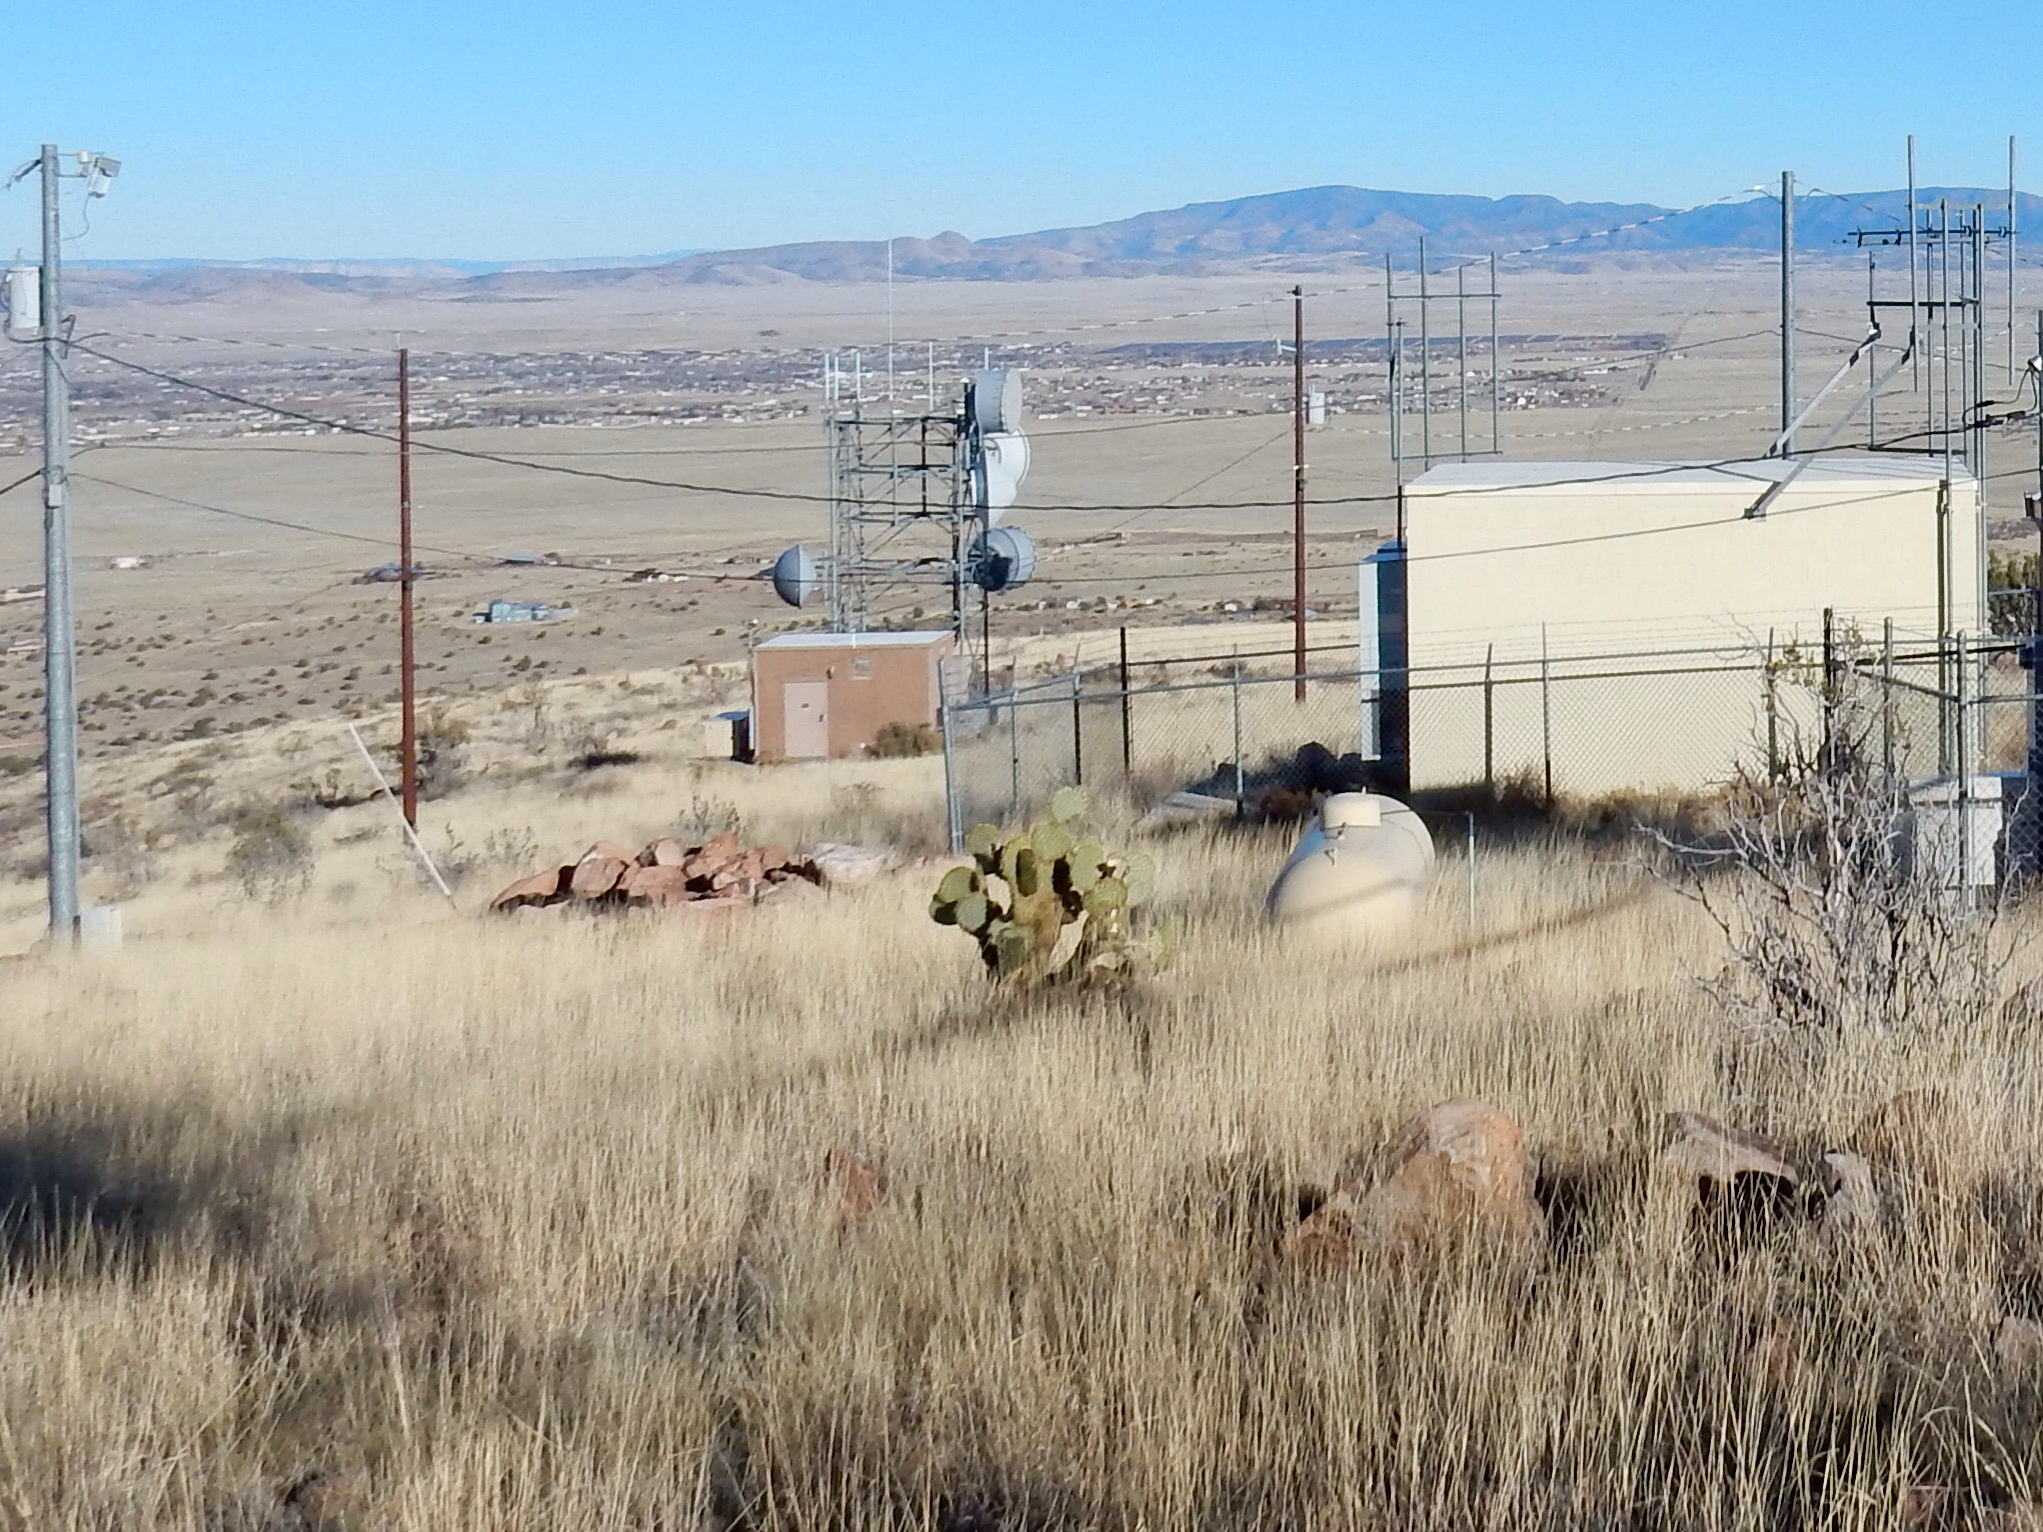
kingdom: Plantae
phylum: Tracheophyta
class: Magnoliopsida
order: Caryophyllales
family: Cactaceae
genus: Opuntia
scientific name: Opuntia chlorotica
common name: Dollar-joint prickly-pear
